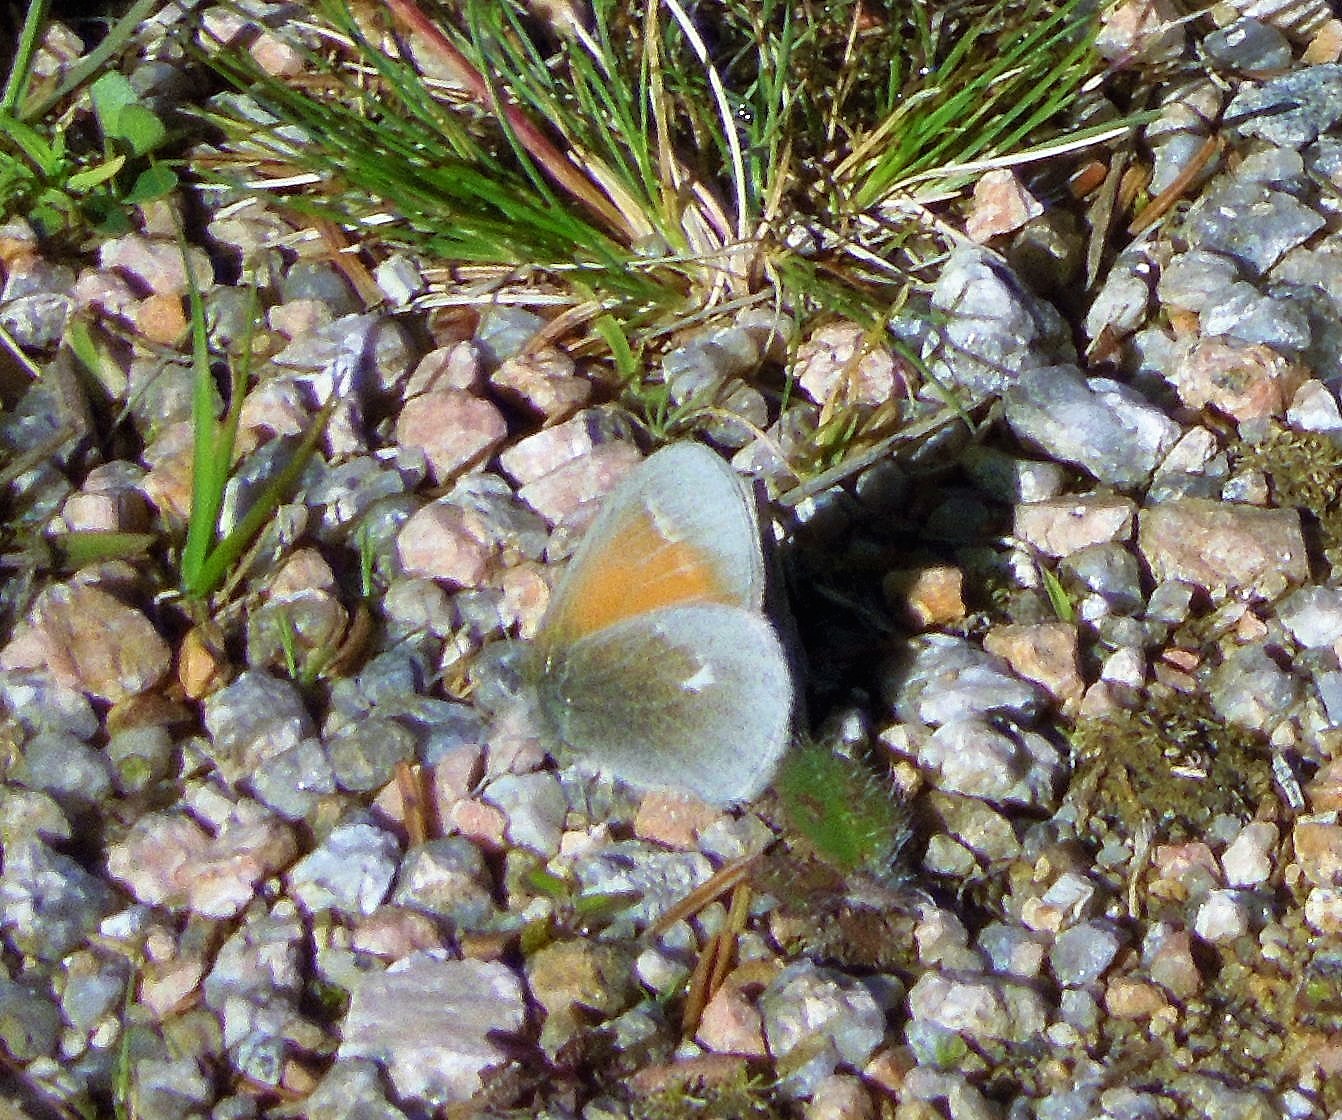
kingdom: Animalia
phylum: Arthropoda
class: Insecta
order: Lepidoptera
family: Nymphalidae
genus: Coenonympha
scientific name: Coenonympha california
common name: Common ringlet
